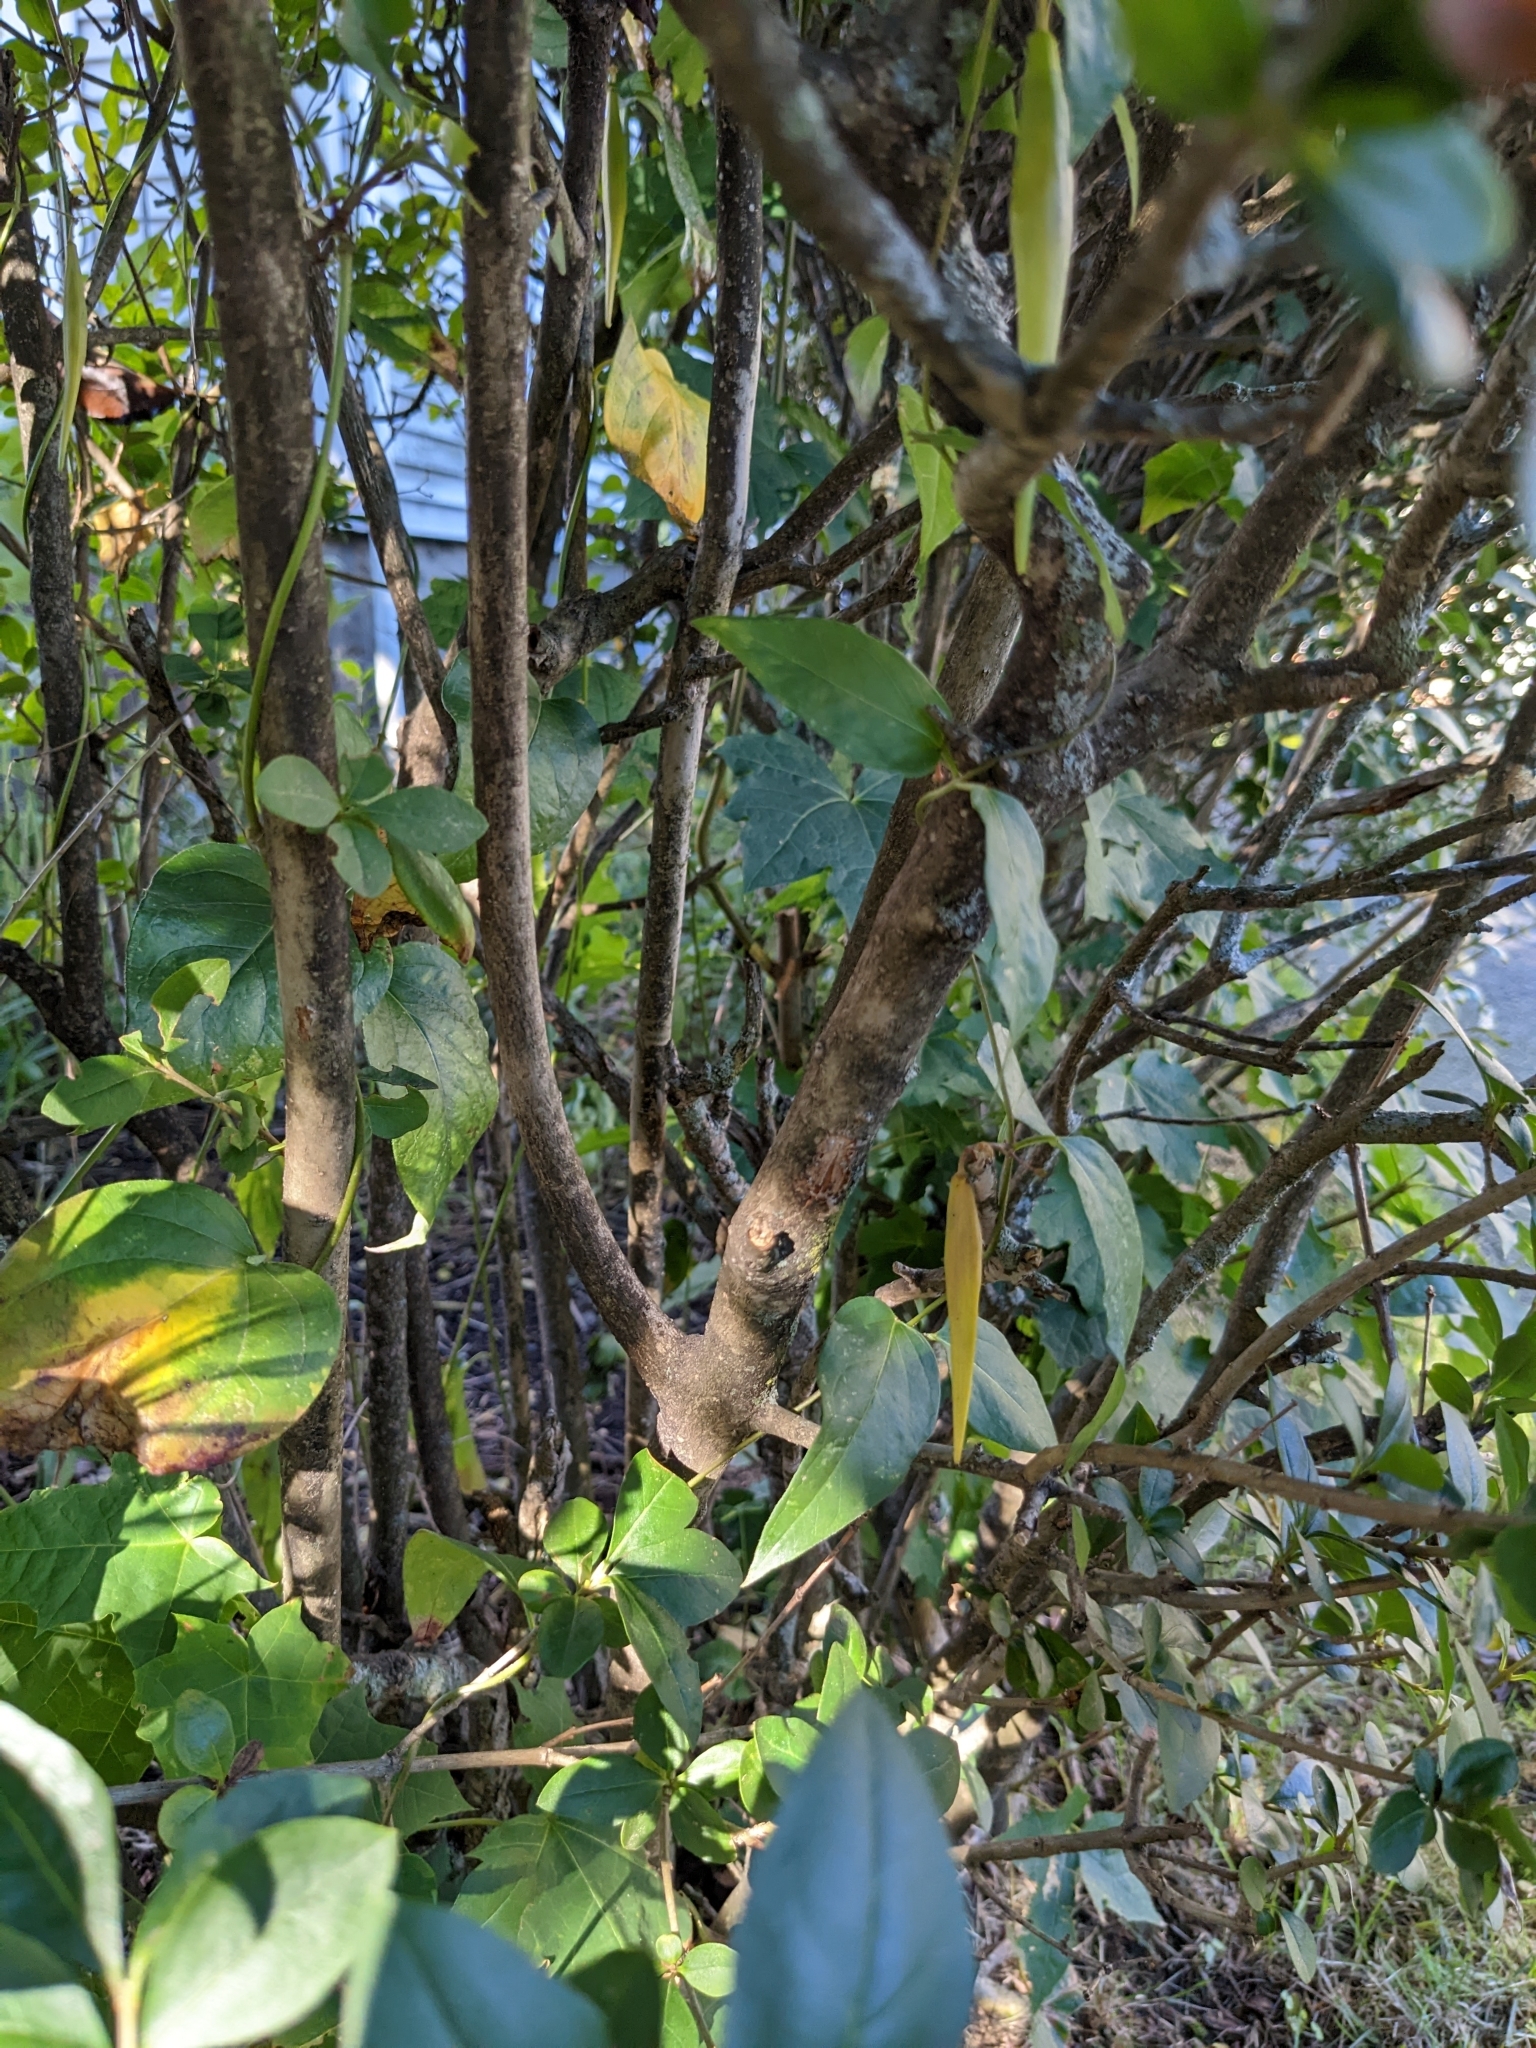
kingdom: Plantae
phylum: Tracheophyta
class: Magnoliopsida
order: Gentianales
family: Apocynaceae
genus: Vincetoxicum
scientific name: Vincetoxicum nigrum
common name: Black swallow-wort
